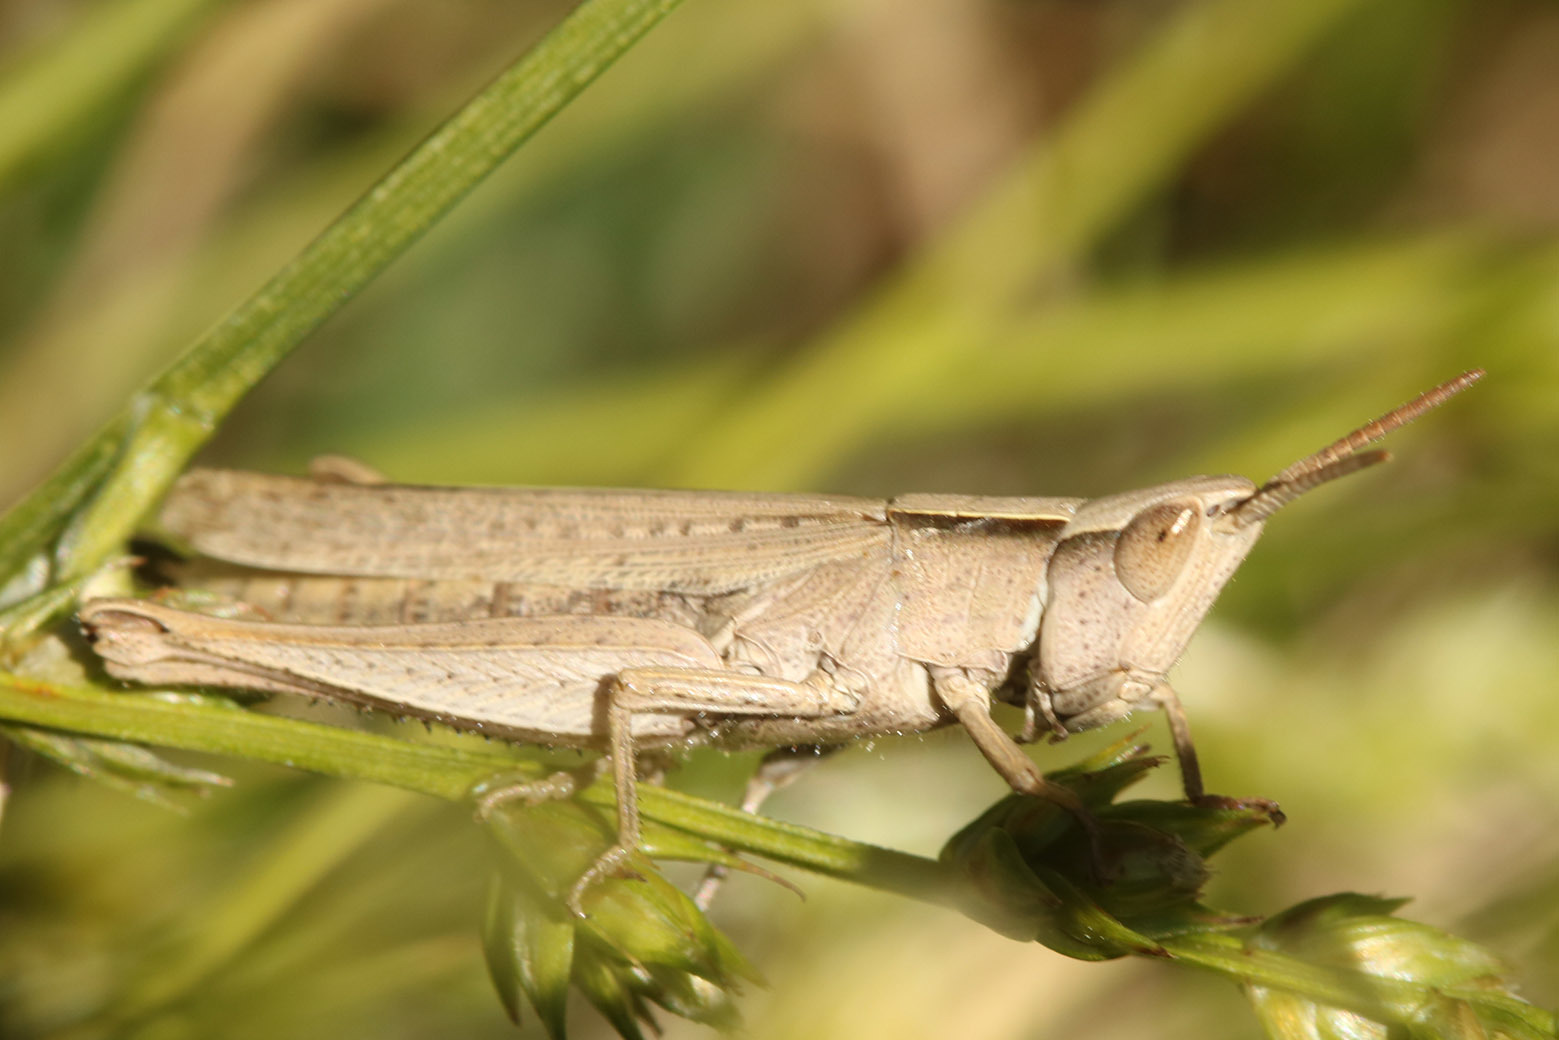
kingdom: Animalia
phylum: Arthropoda
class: Insecta
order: Orthoptera
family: Acrididae
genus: Laplatacris
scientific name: Laplatacris dispar
